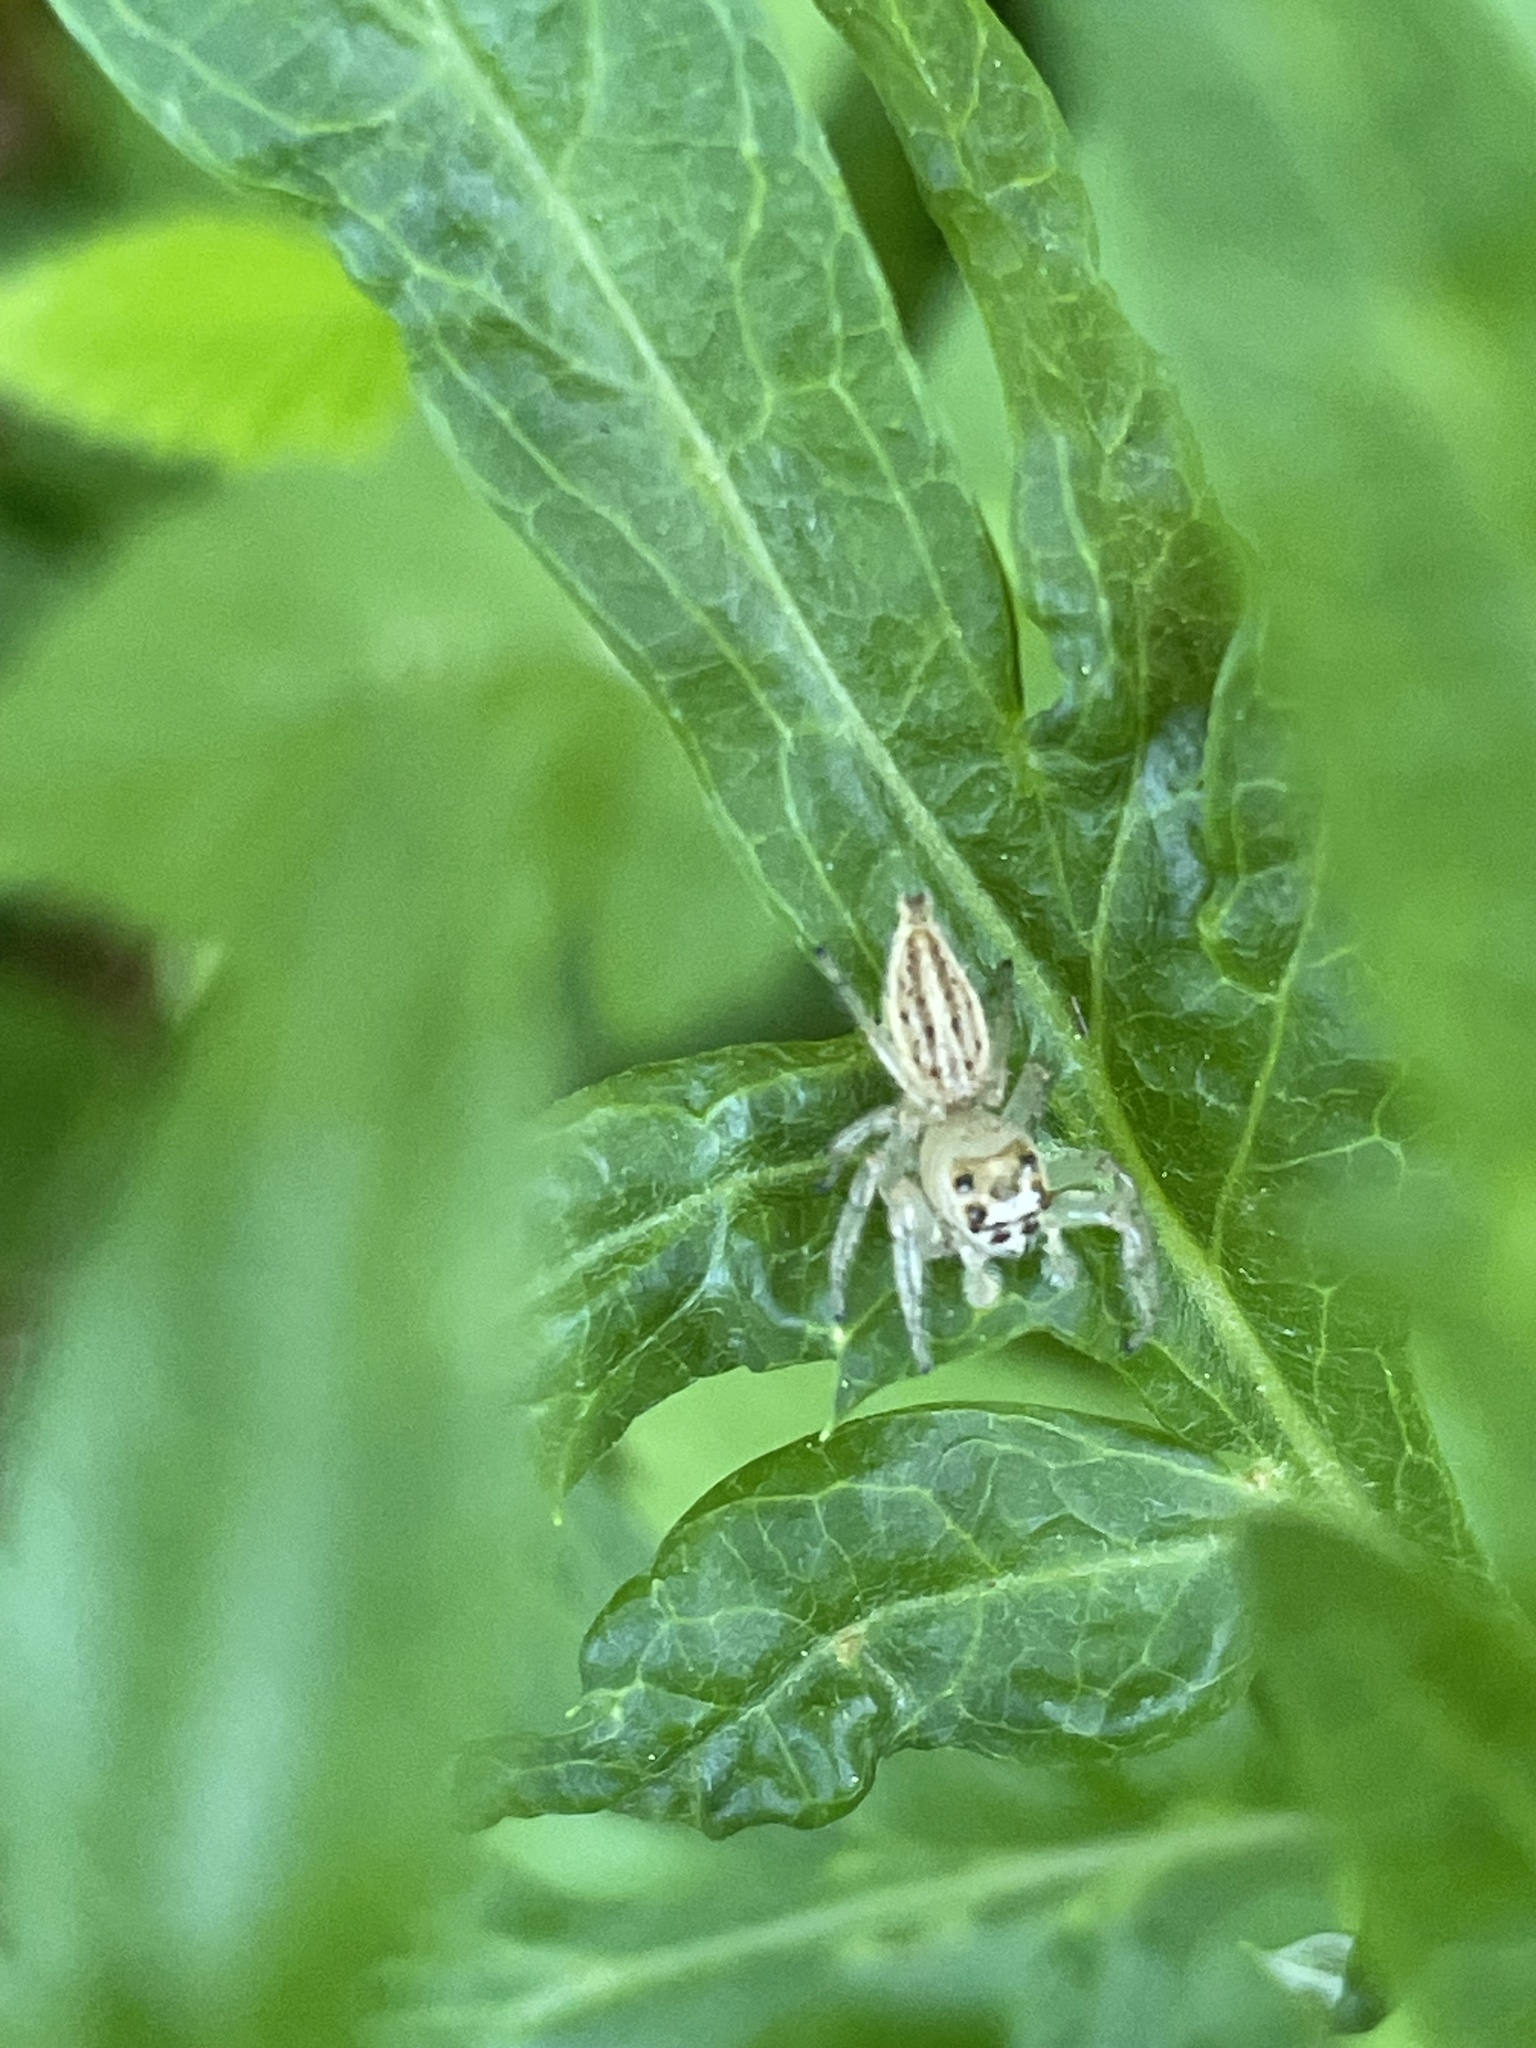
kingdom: Animalia
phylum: Arthropoda
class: Arachnida
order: Araneae
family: Salticidae
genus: Colonus
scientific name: Colonus sylvanus
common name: Jumping spiders
